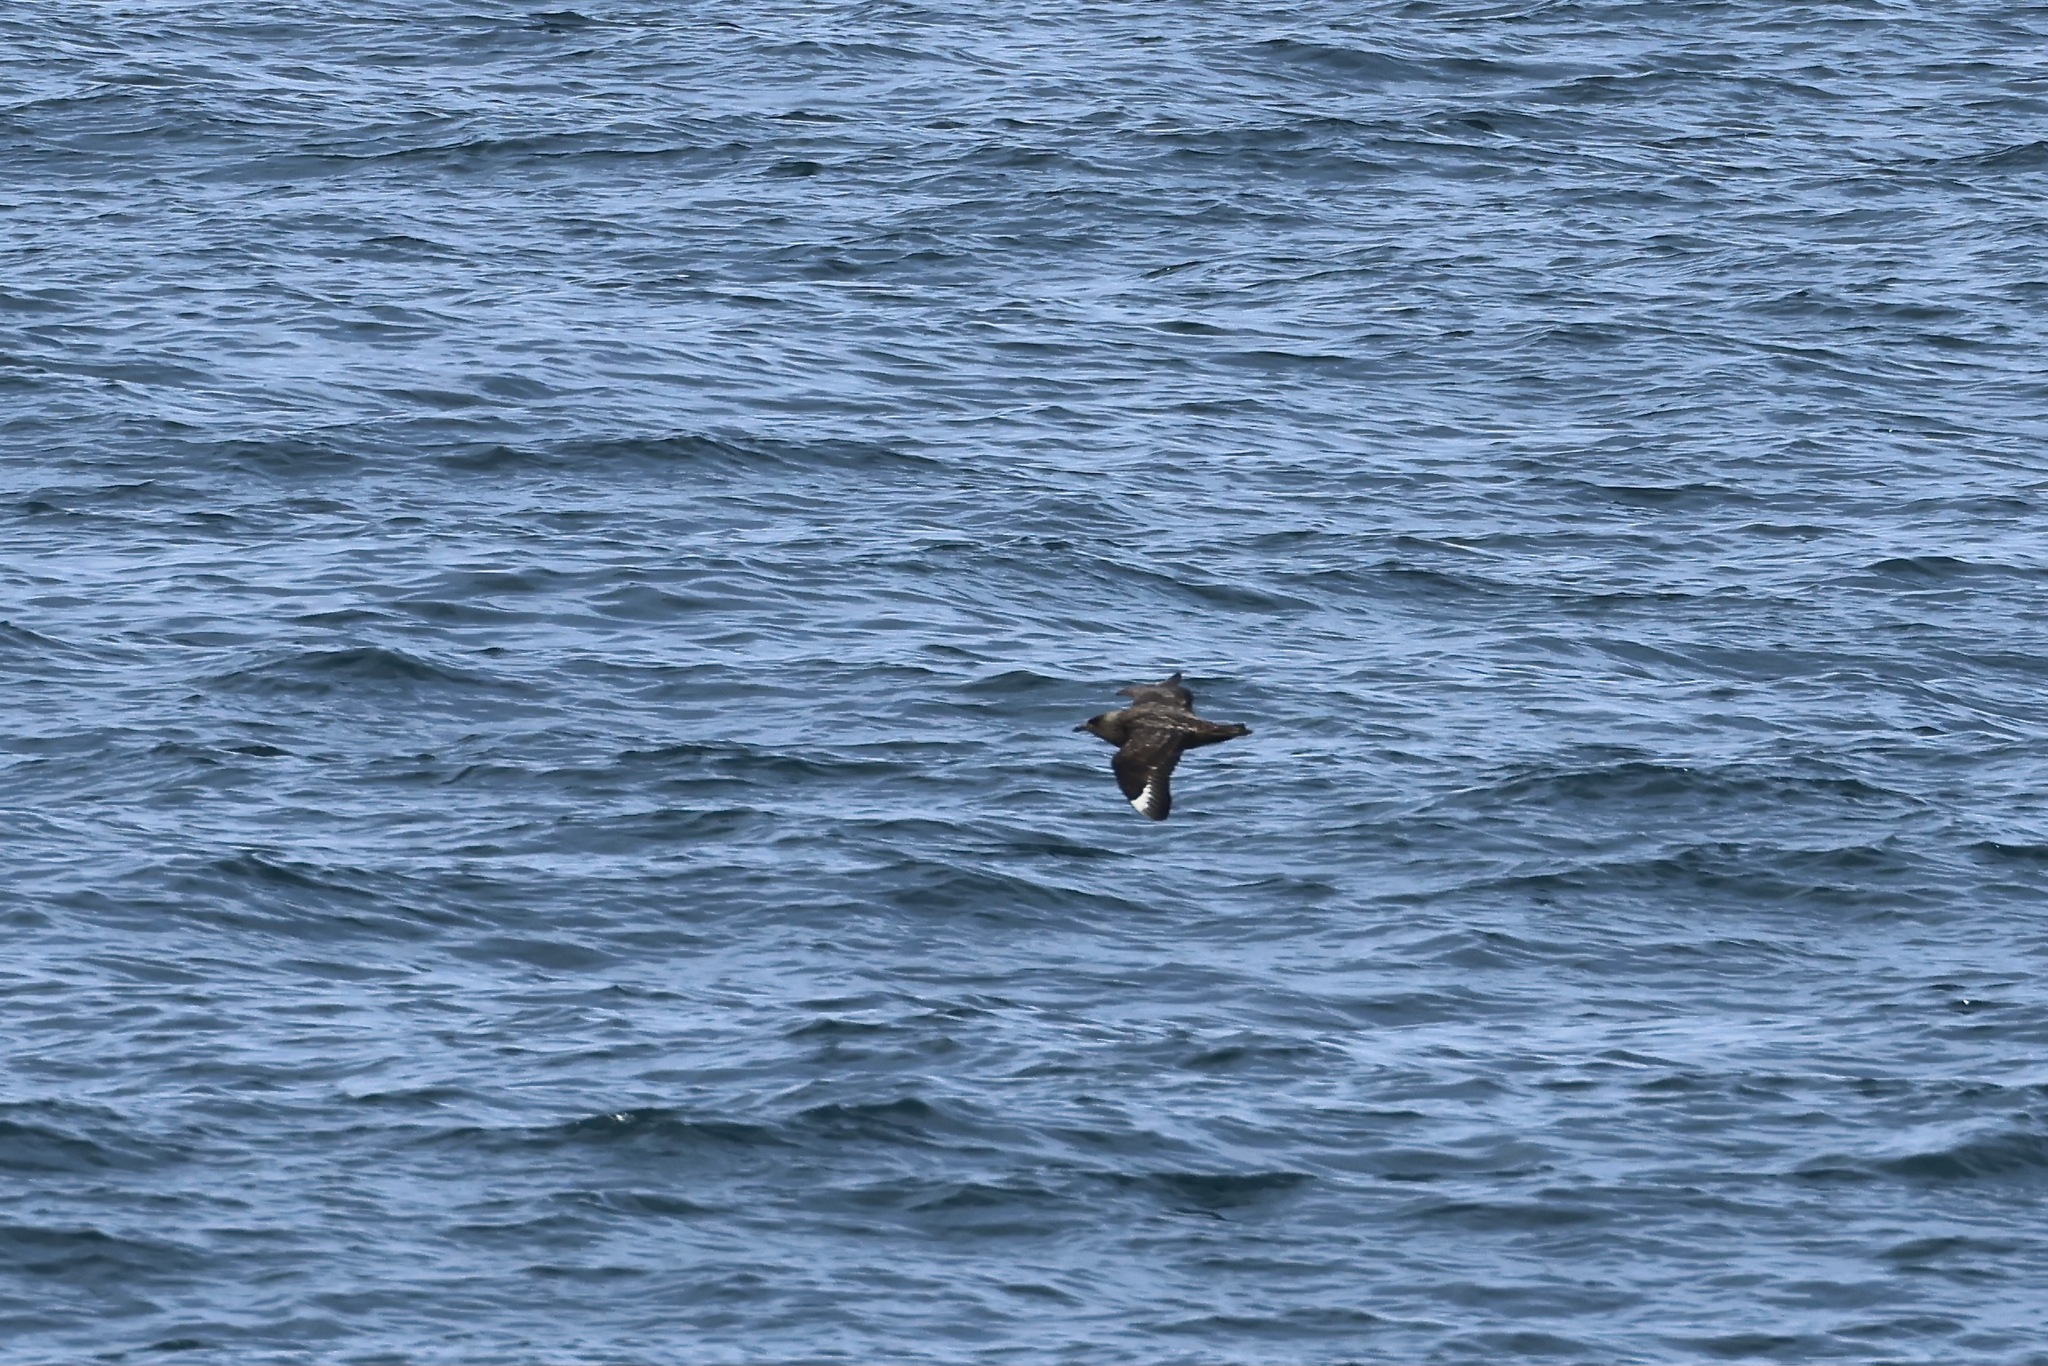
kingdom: Animalia
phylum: Chordata
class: Aves
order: Charadriiformes
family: Stercorariidae
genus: Stercorarius
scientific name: Stercorarius skua
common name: Great skua
